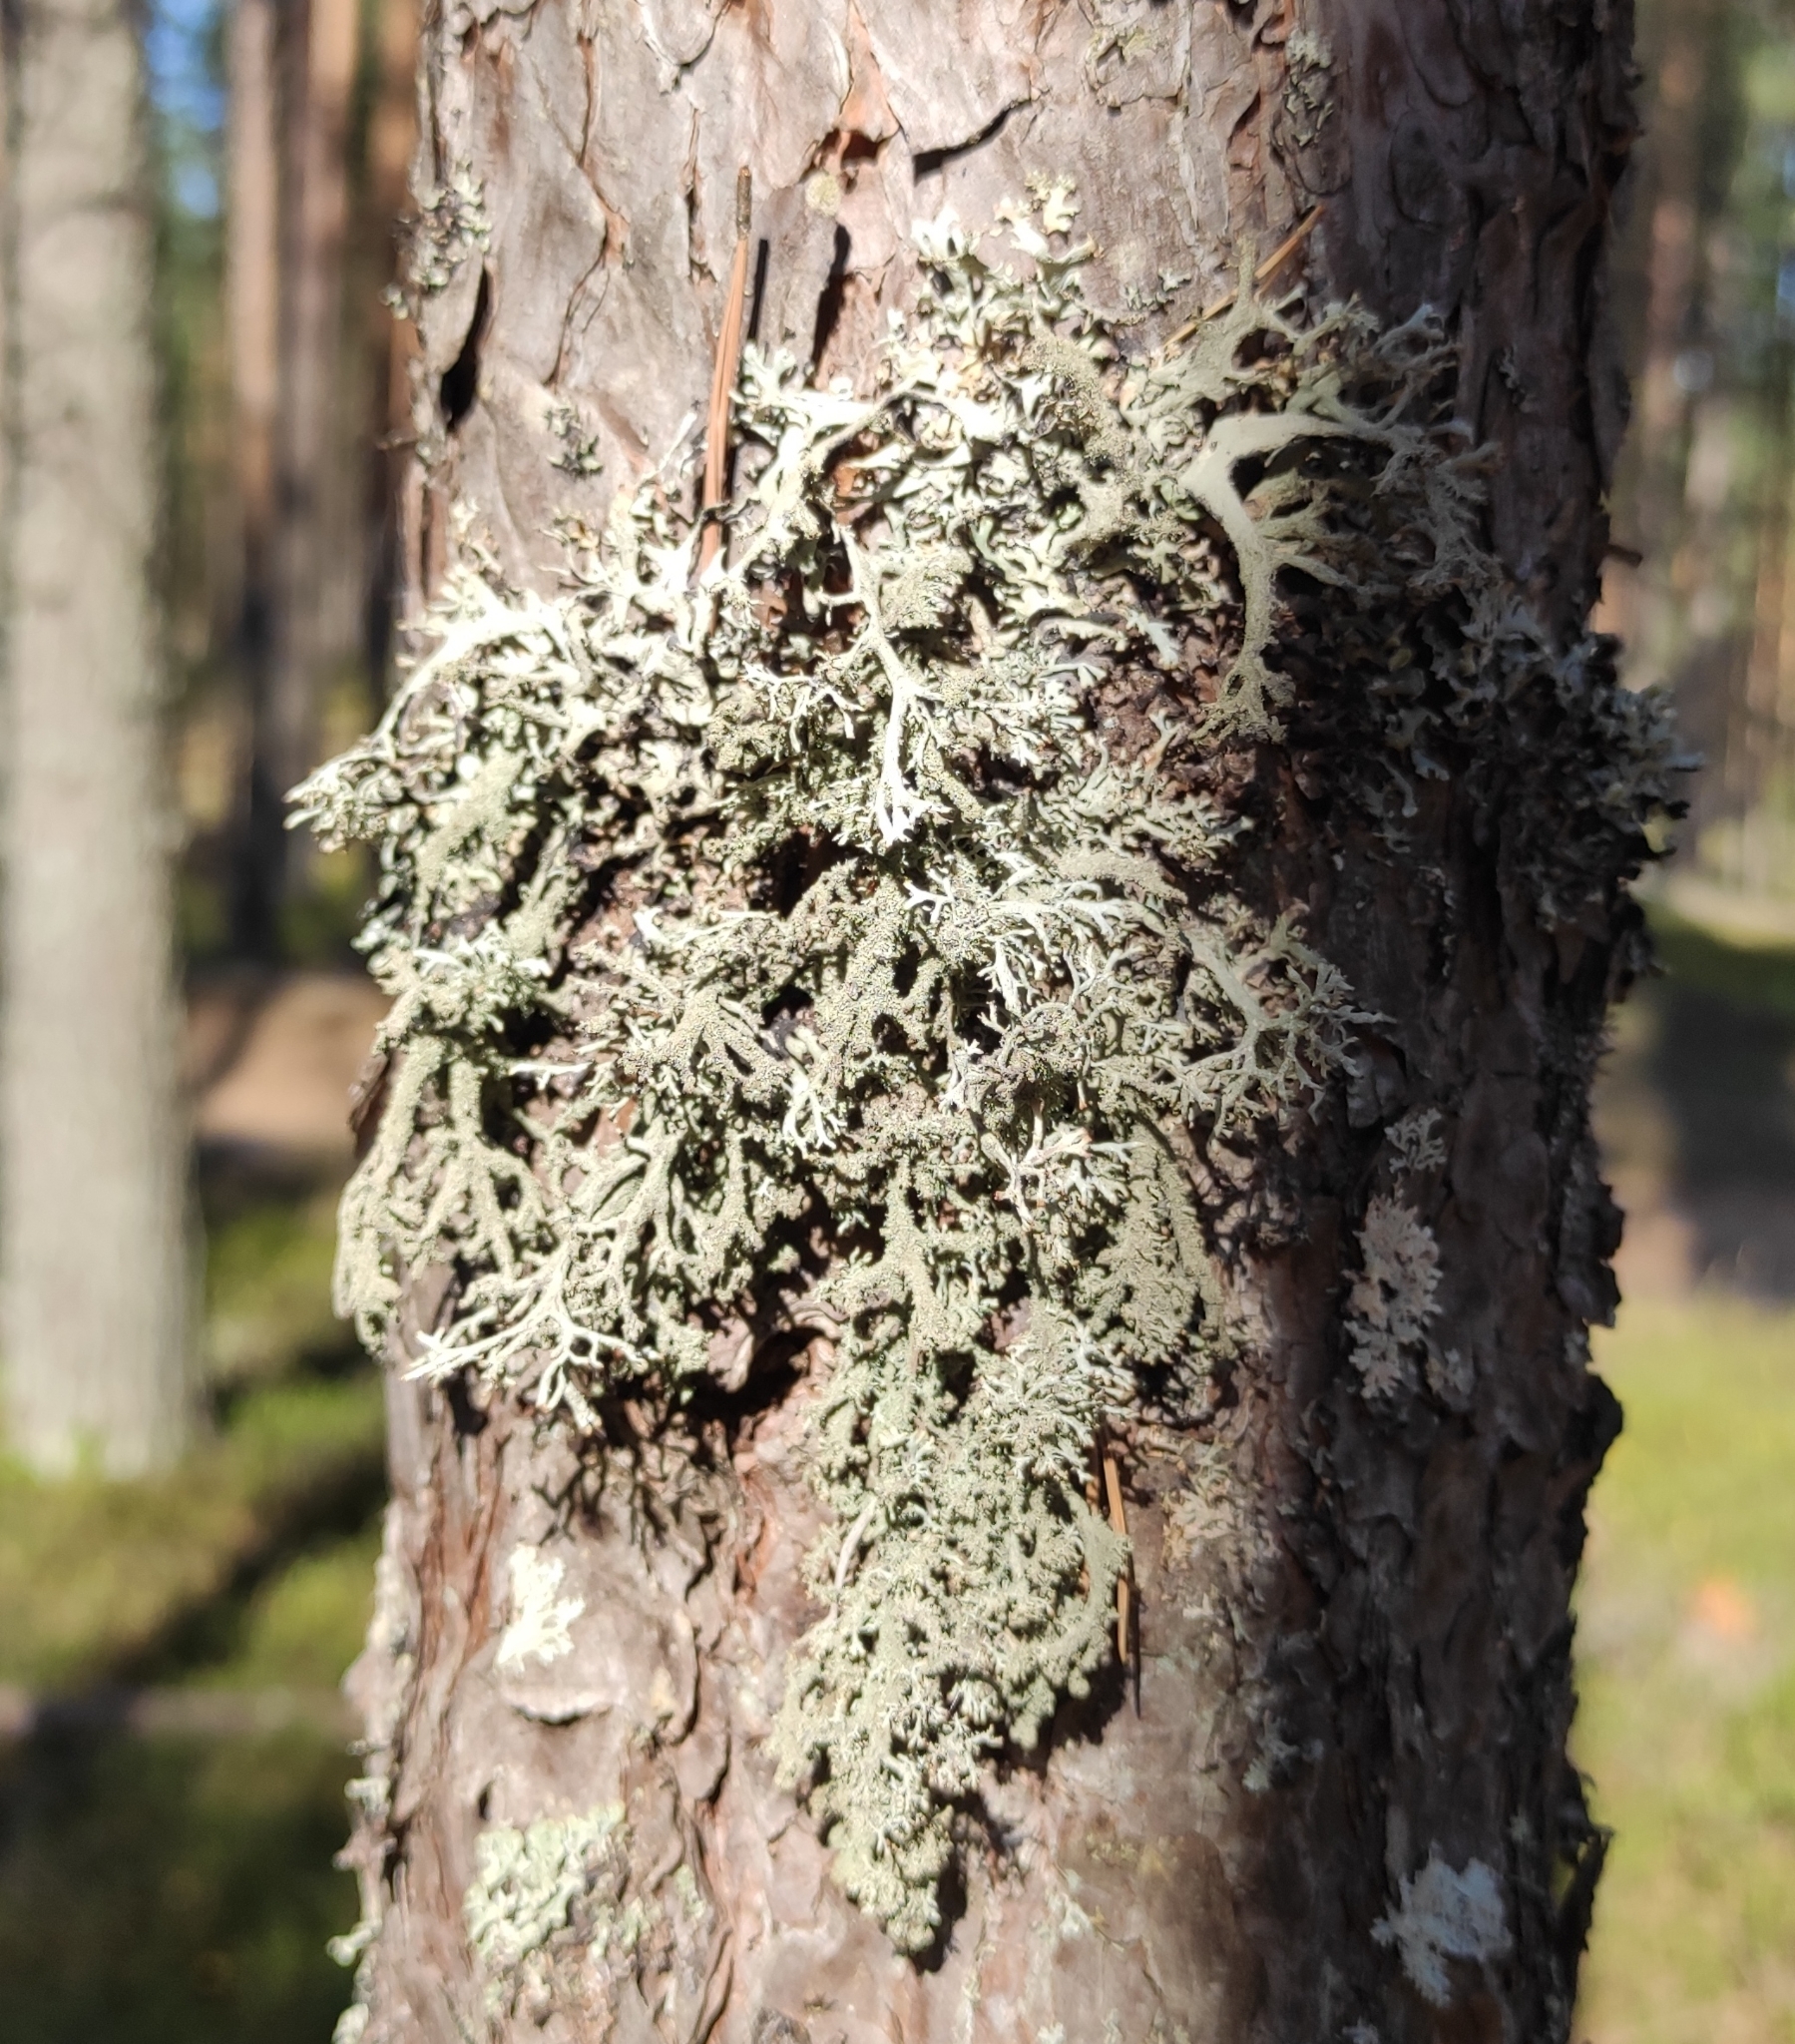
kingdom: Fungi
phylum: Ascomycota
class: Lecanoromycetes
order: Lecanorales
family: Parmeliaceae
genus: Pseudevernia
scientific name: Pseudevernia furfuracea
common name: Tree moss
